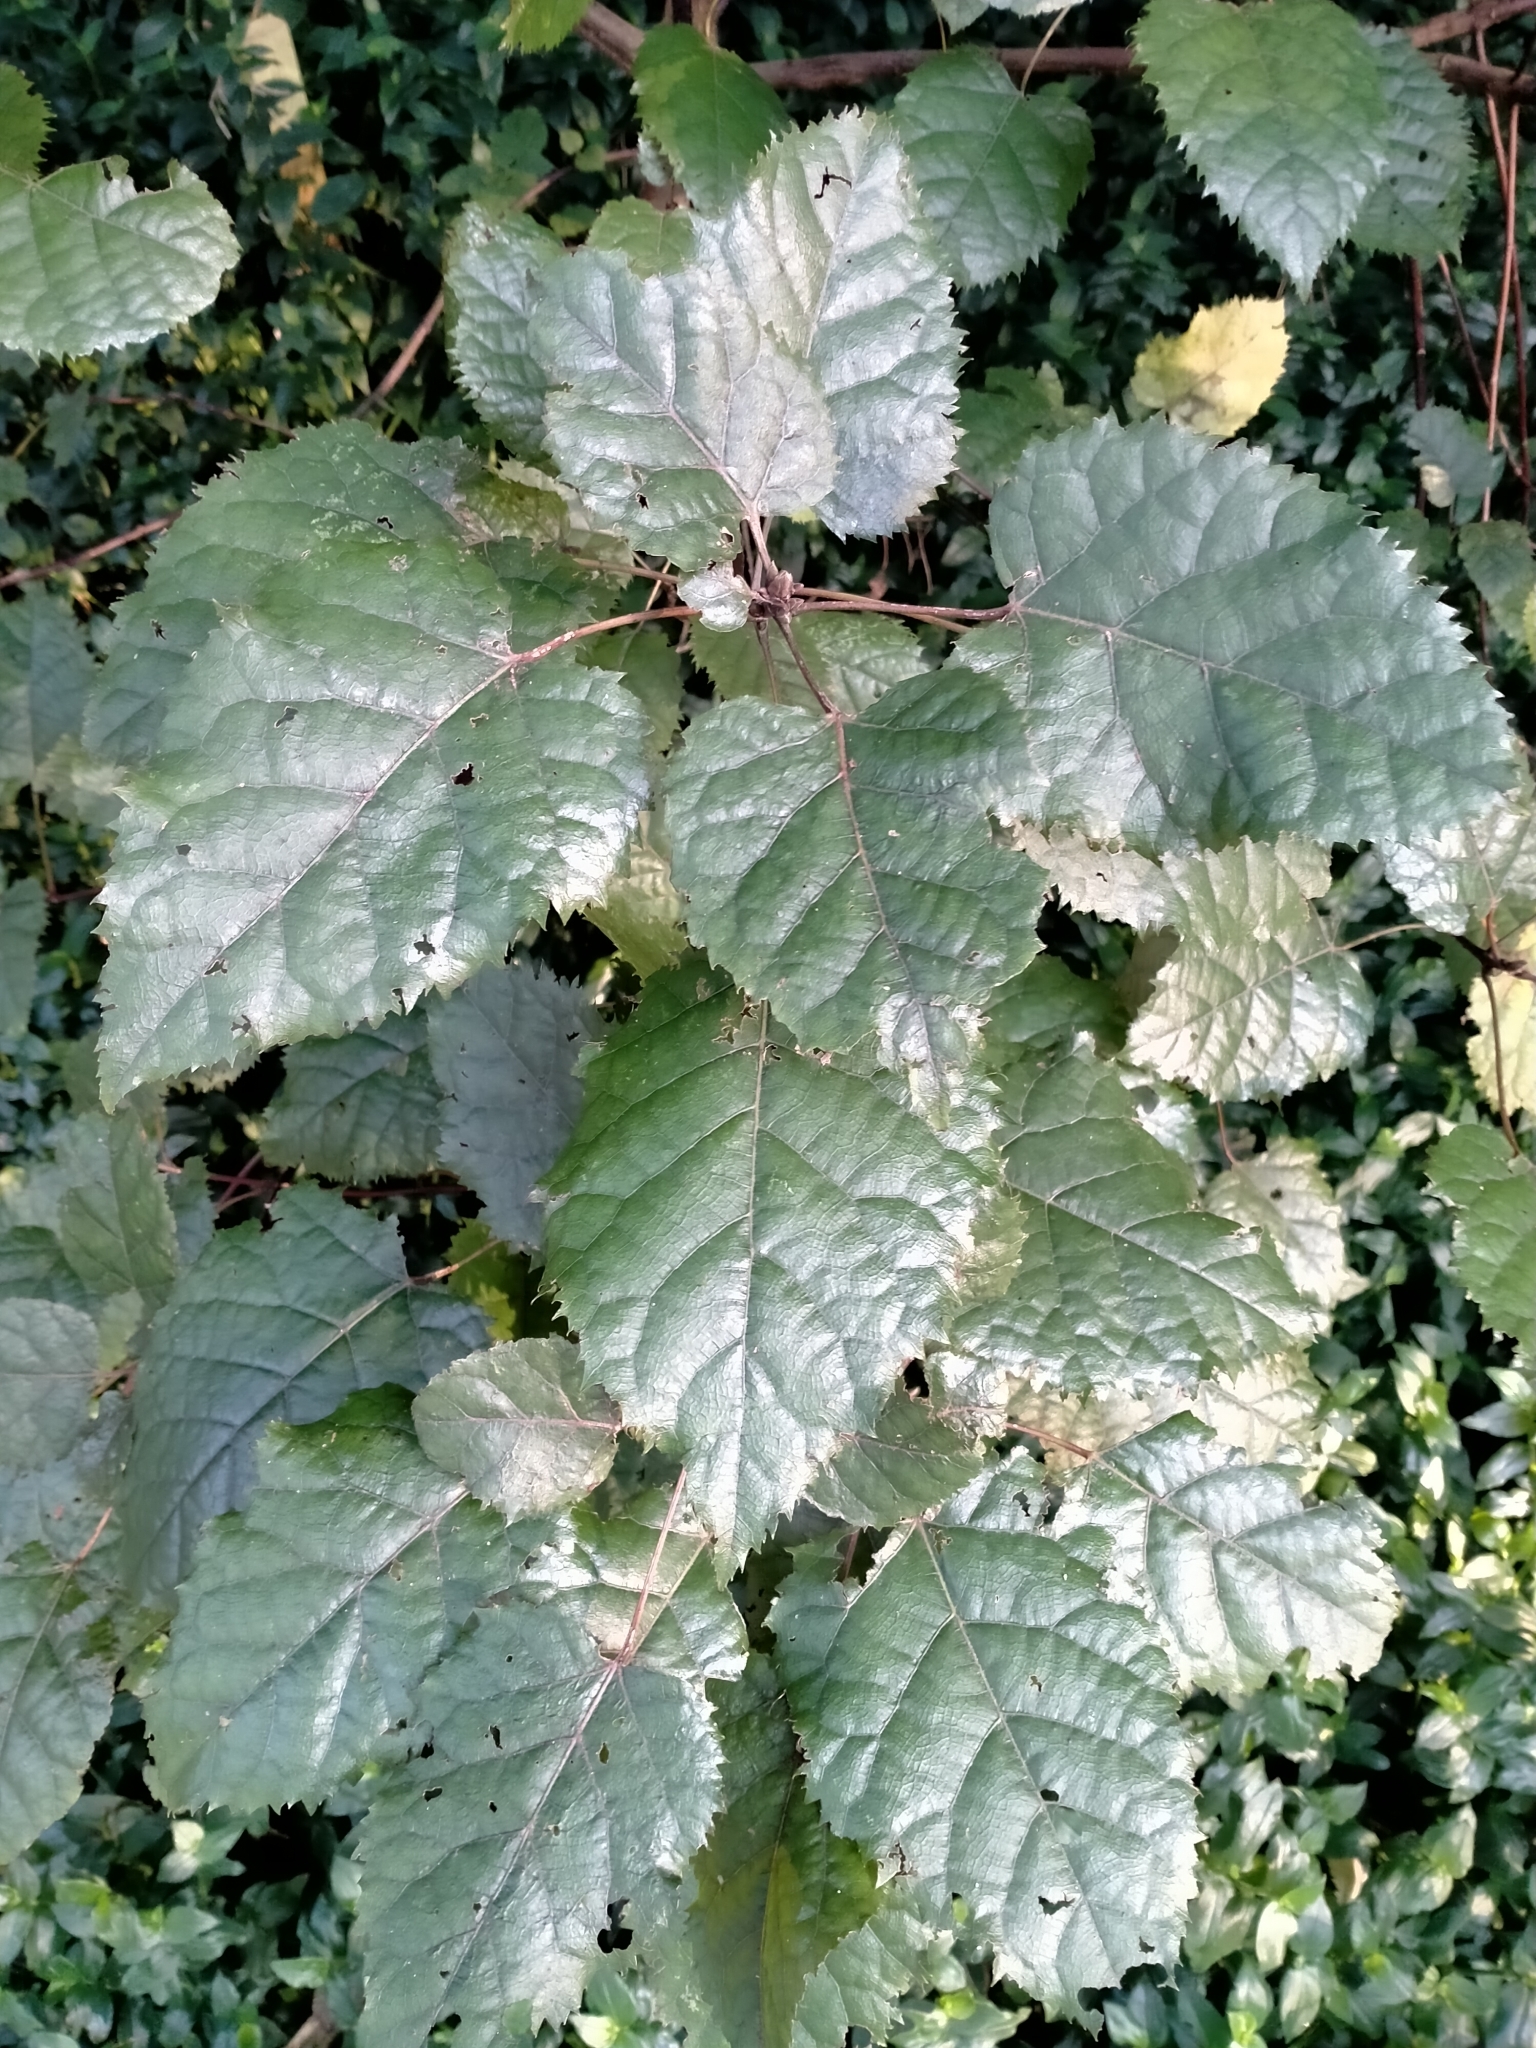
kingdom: Plantae
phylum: Tracheophyta
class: Magnoliopsida
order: Oxalidales
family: Elaeocarpaceae
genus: Aristotelia
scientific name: Aristotelia serrata
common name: New zealand wineberry
